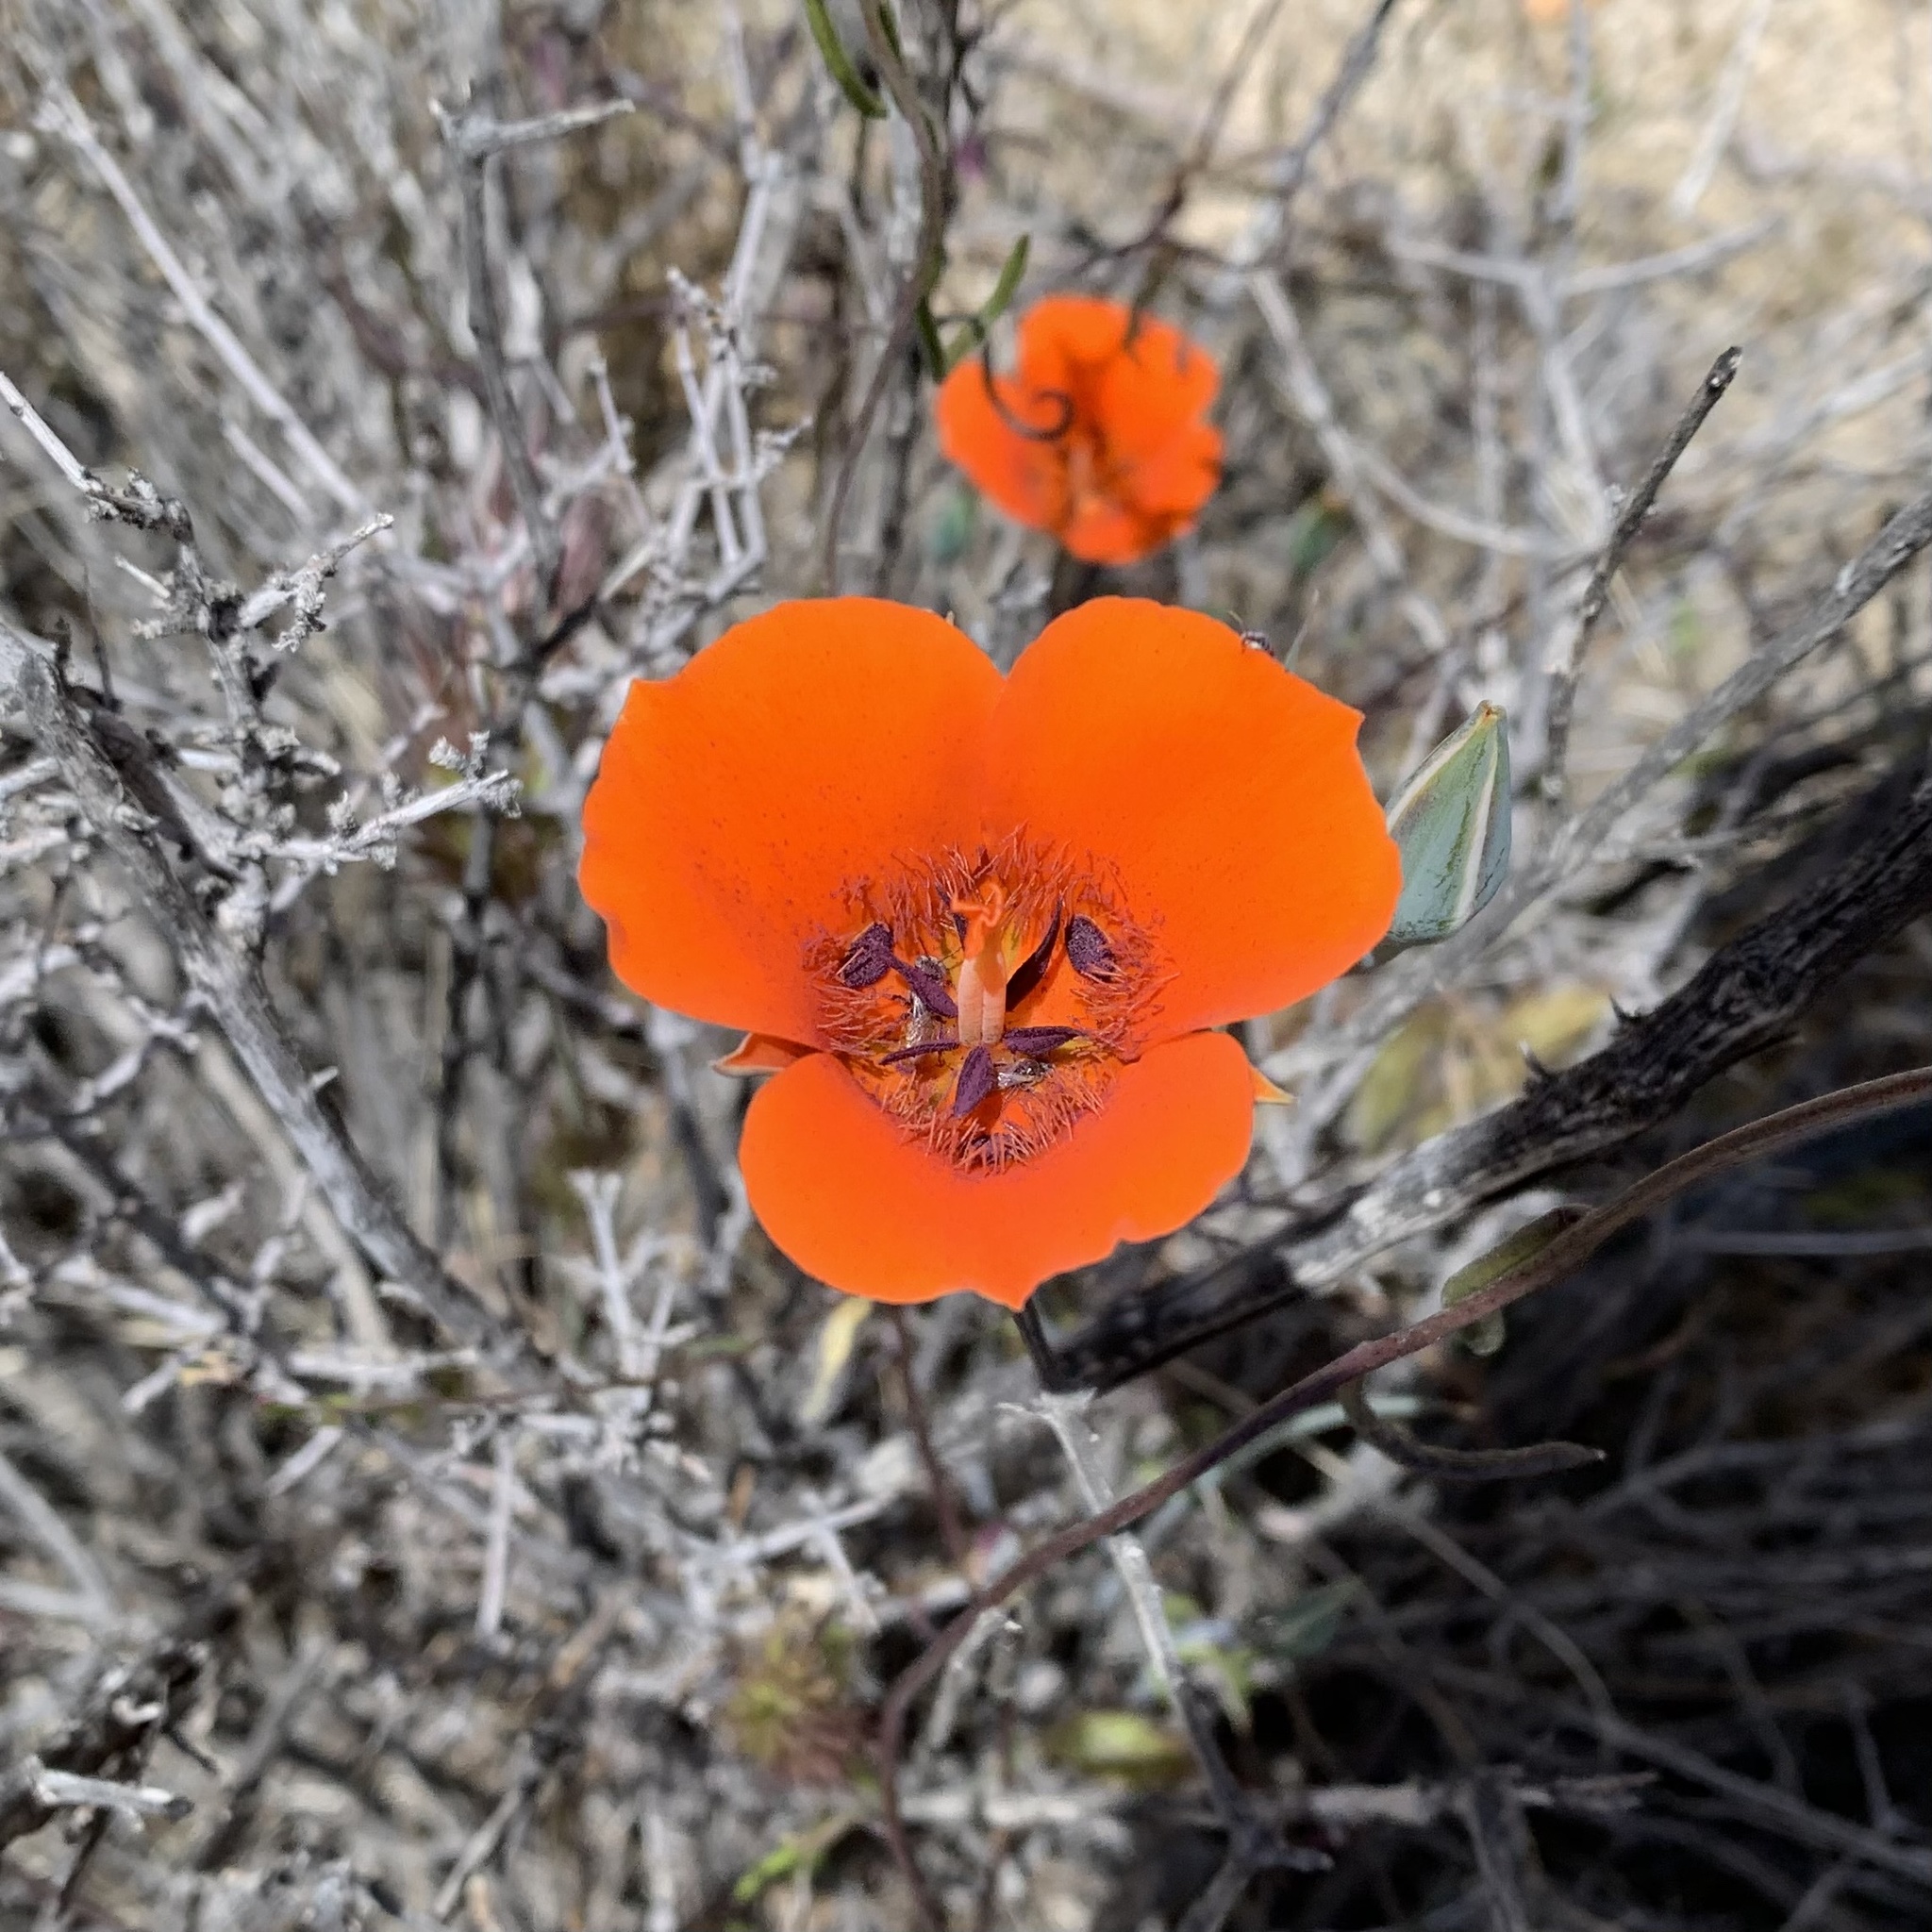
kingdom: Plantae
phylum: Tracheophyta
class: Liliopsida
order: Liliales
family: Liliaceae
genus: Calochortus
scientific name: Calochortus kennedyi
